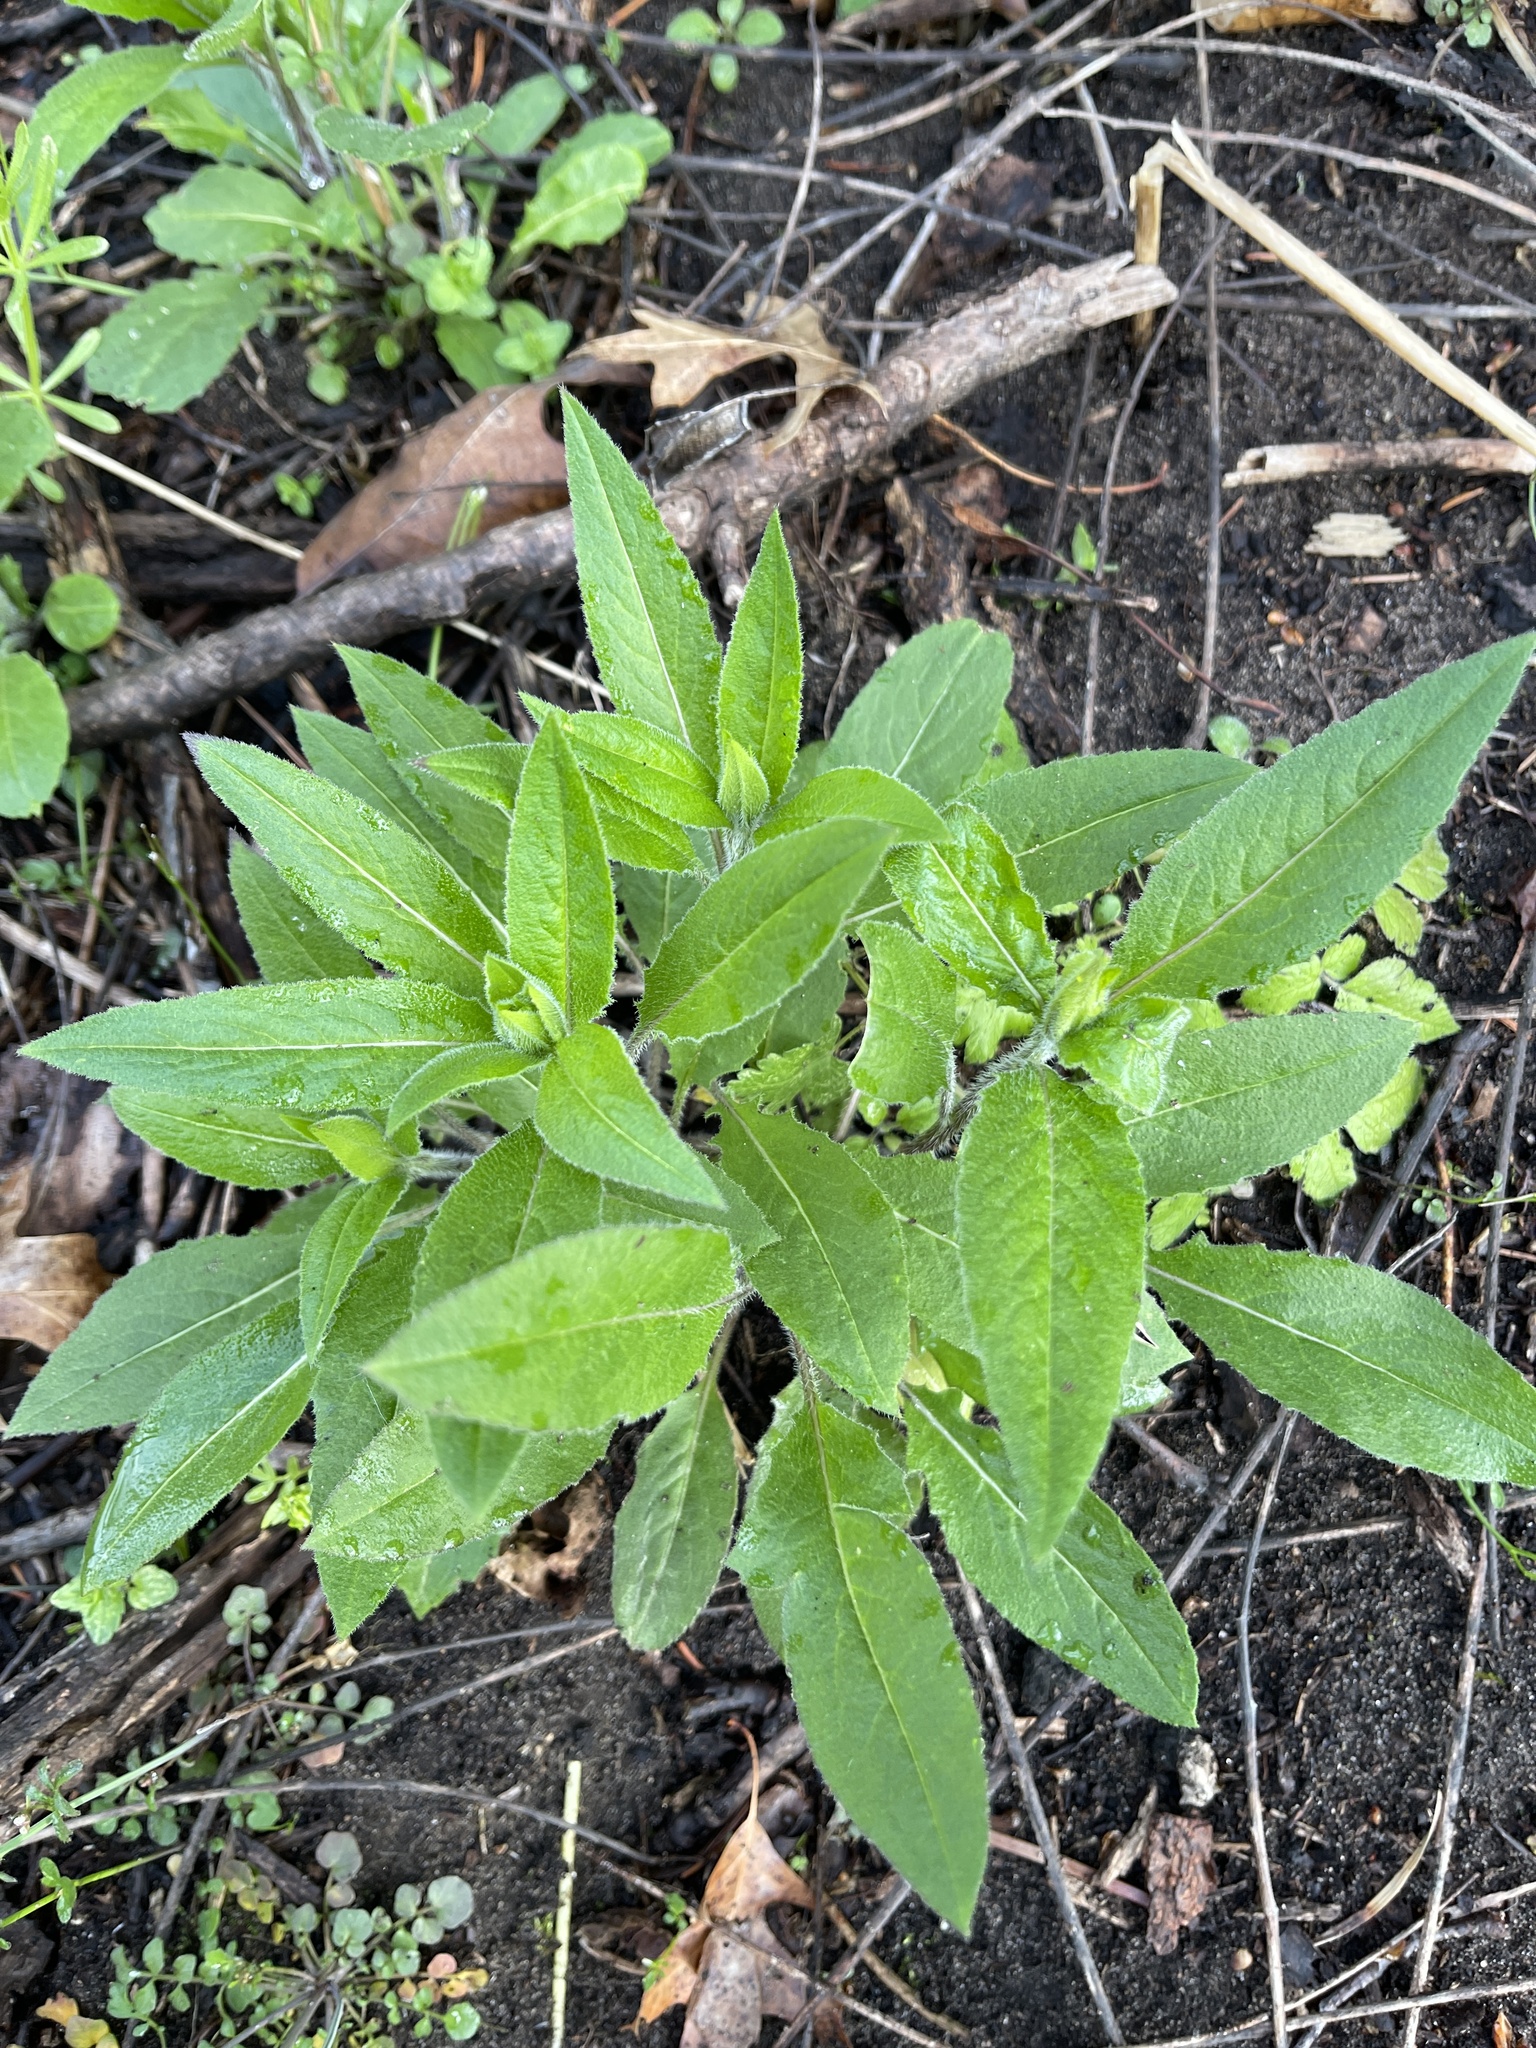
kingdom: Plantae
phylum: Tracheophyta
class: Magnoliopsida
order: Brassicales
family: Brassicaceae
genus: Hesperis
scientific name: Hesperis matronalis
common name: Dame's-violet
